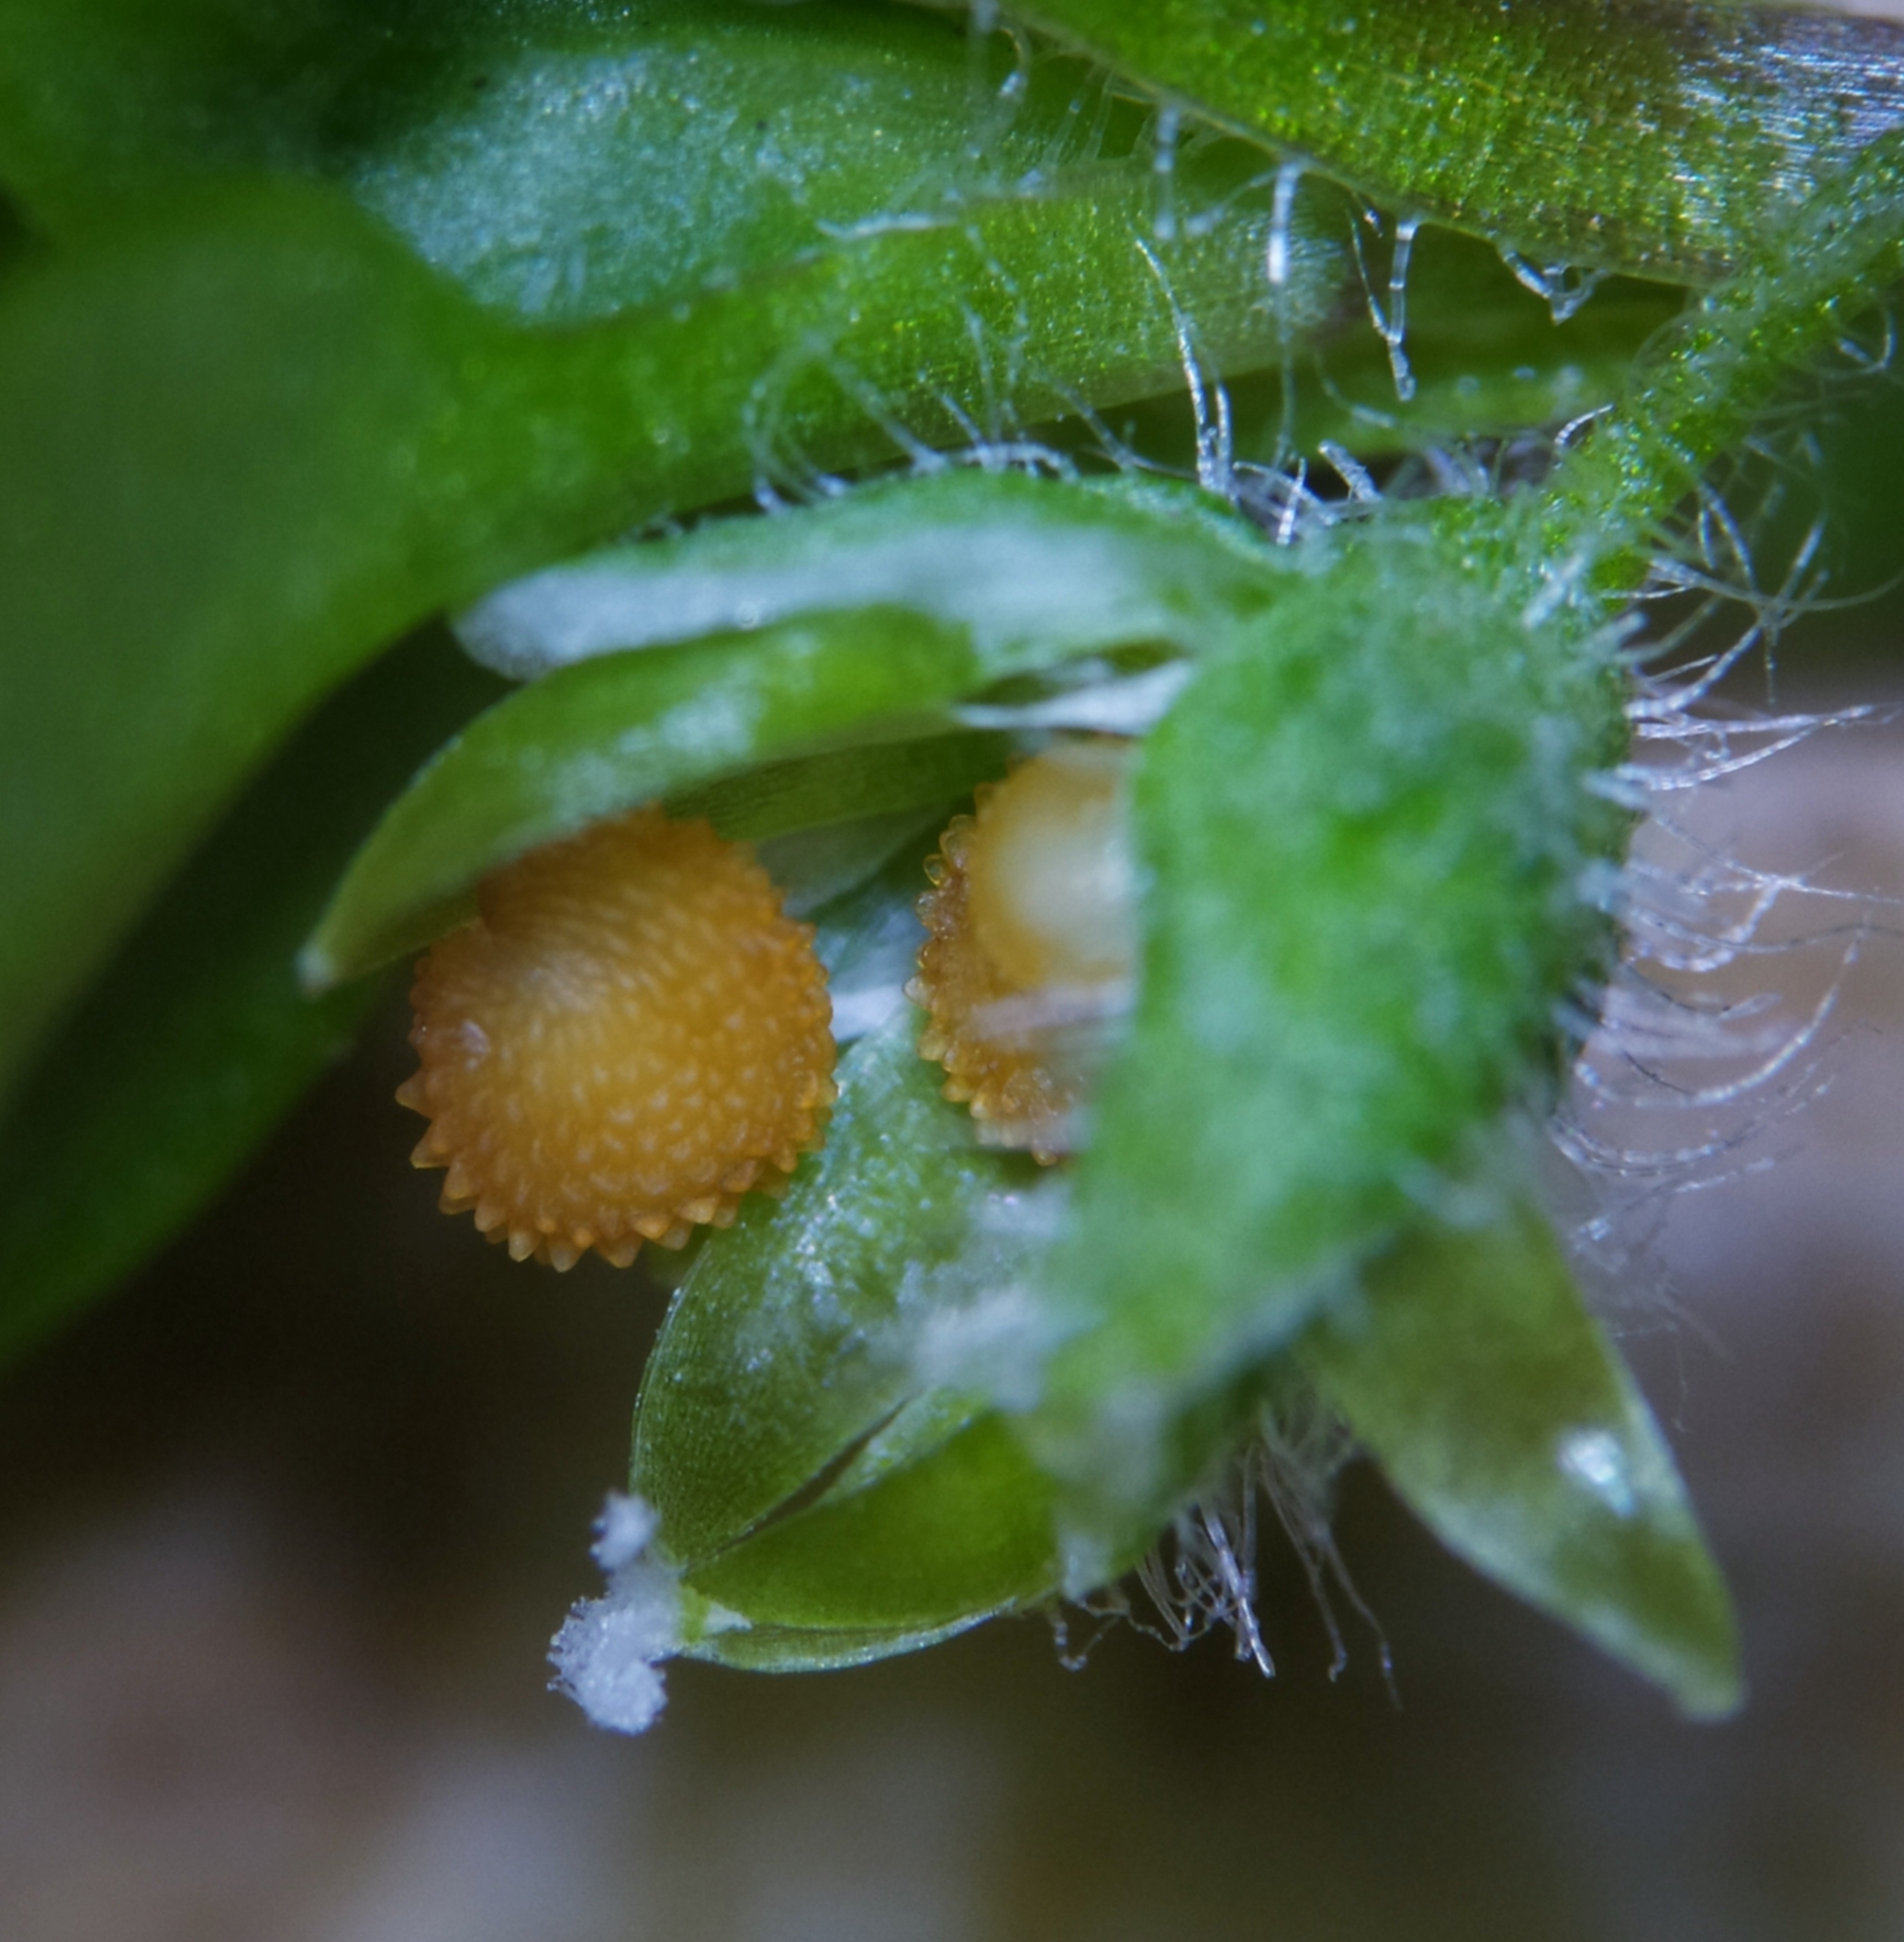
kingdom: Plantae
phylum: Tracheophyta
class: Magnoliopsida
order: Caryophyllales
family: Caryophyllaceae
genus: Stellaria
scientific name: Stellaria media
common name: Common chickweed
